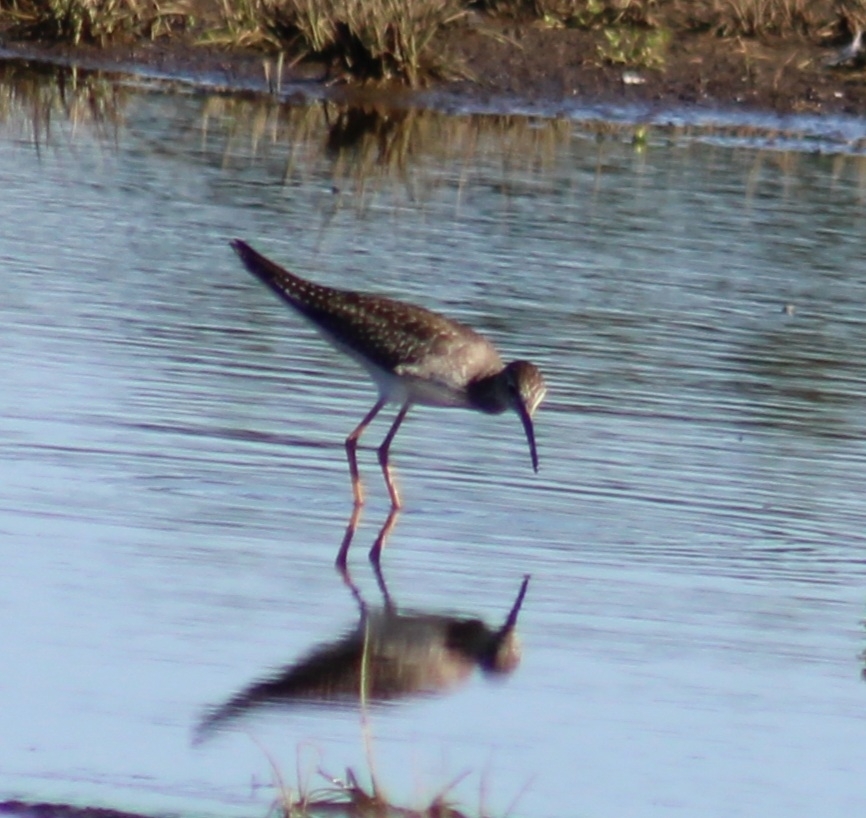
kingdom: Animalia
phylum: Chordata
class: Aves
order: Charadriiformes
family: Scolopacidae
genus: Tringa
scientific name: Tringa flavipes
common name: Lesser yellowlegs
